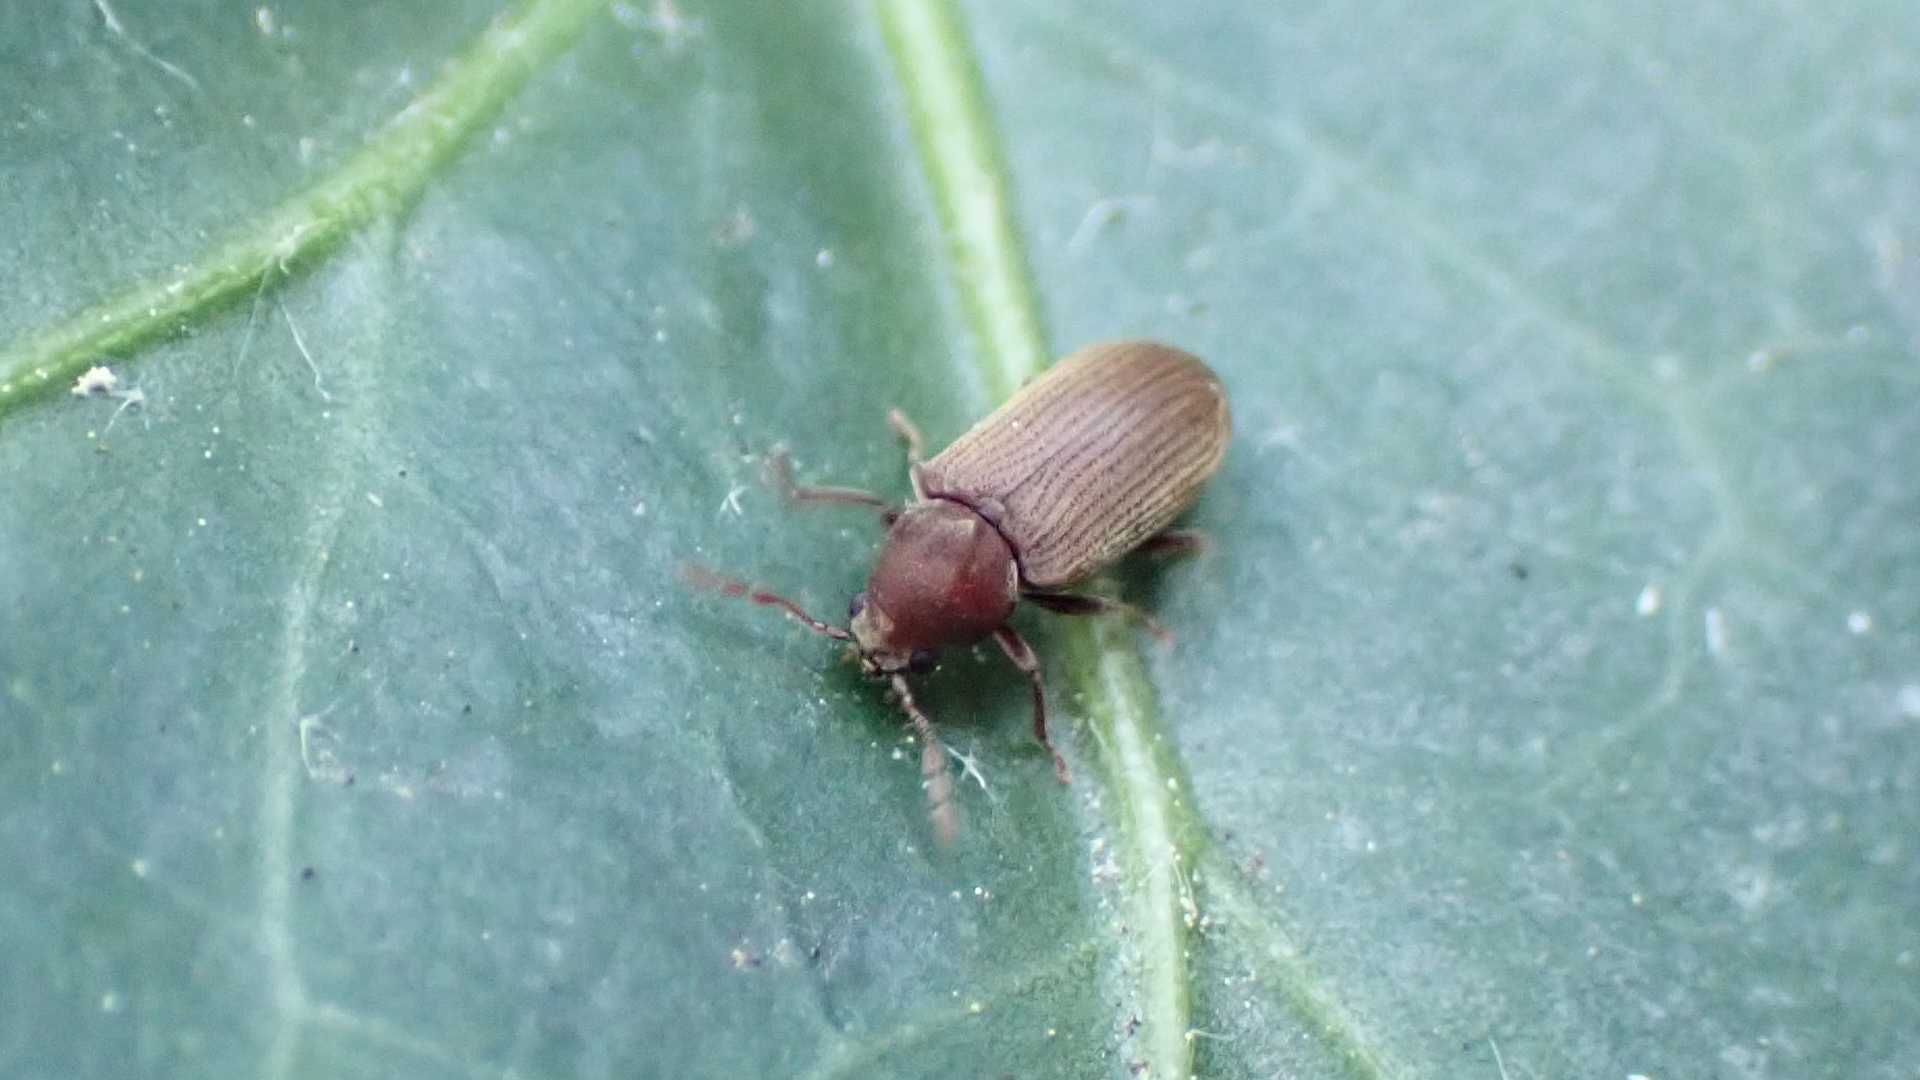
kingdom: Animalia
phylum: Arthropoda
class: Insecta
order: Coleoptera
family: Anobiidae
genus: Anobium
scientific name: Anobium
